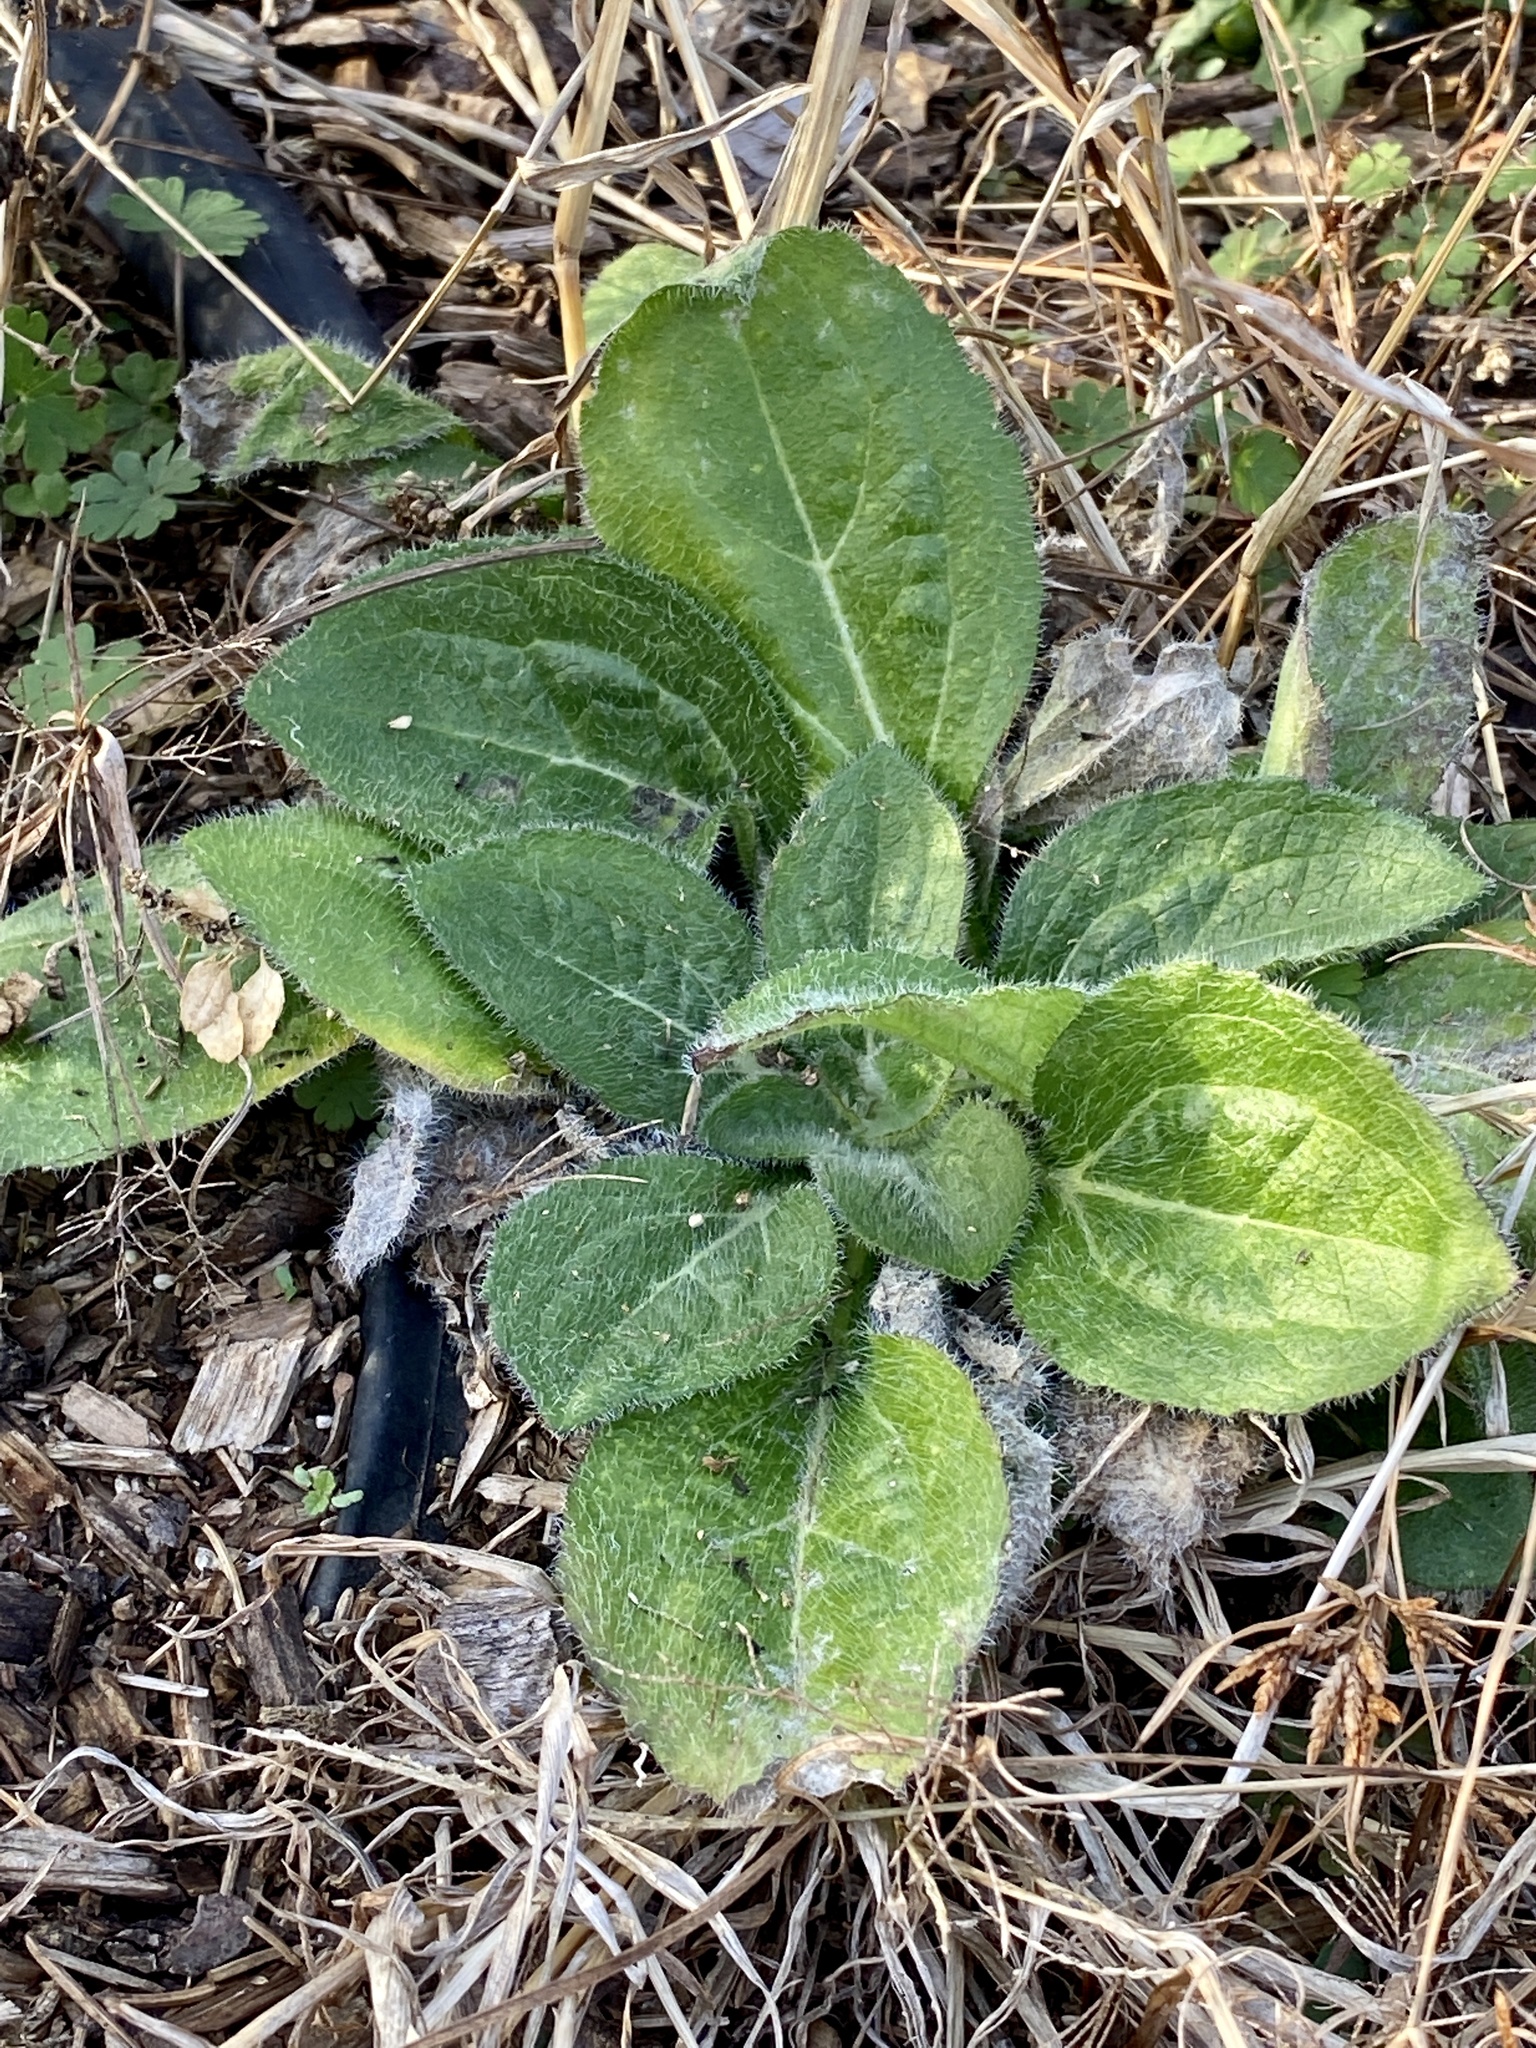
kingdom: Plantae
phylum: Tracheophyta
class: Magnoliopsida
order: Asterales
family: Asteraceae
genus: Rudbeckia
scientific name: Rudbeckia hirta
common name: Black-eyed-susan
